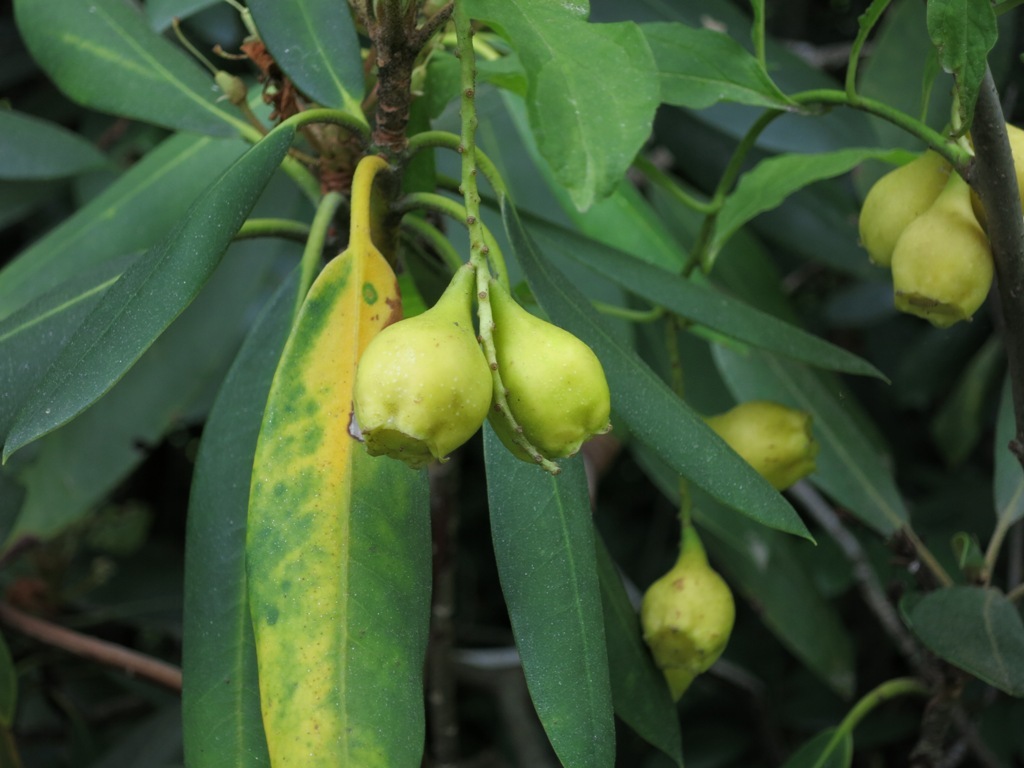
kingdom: Plantae
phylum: Tracheophyta
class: Magnoliopsida
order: Santalales
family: Cervantesiaceae
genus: Pyrularia
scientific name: Pyrularia pubera
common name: Oilnut
